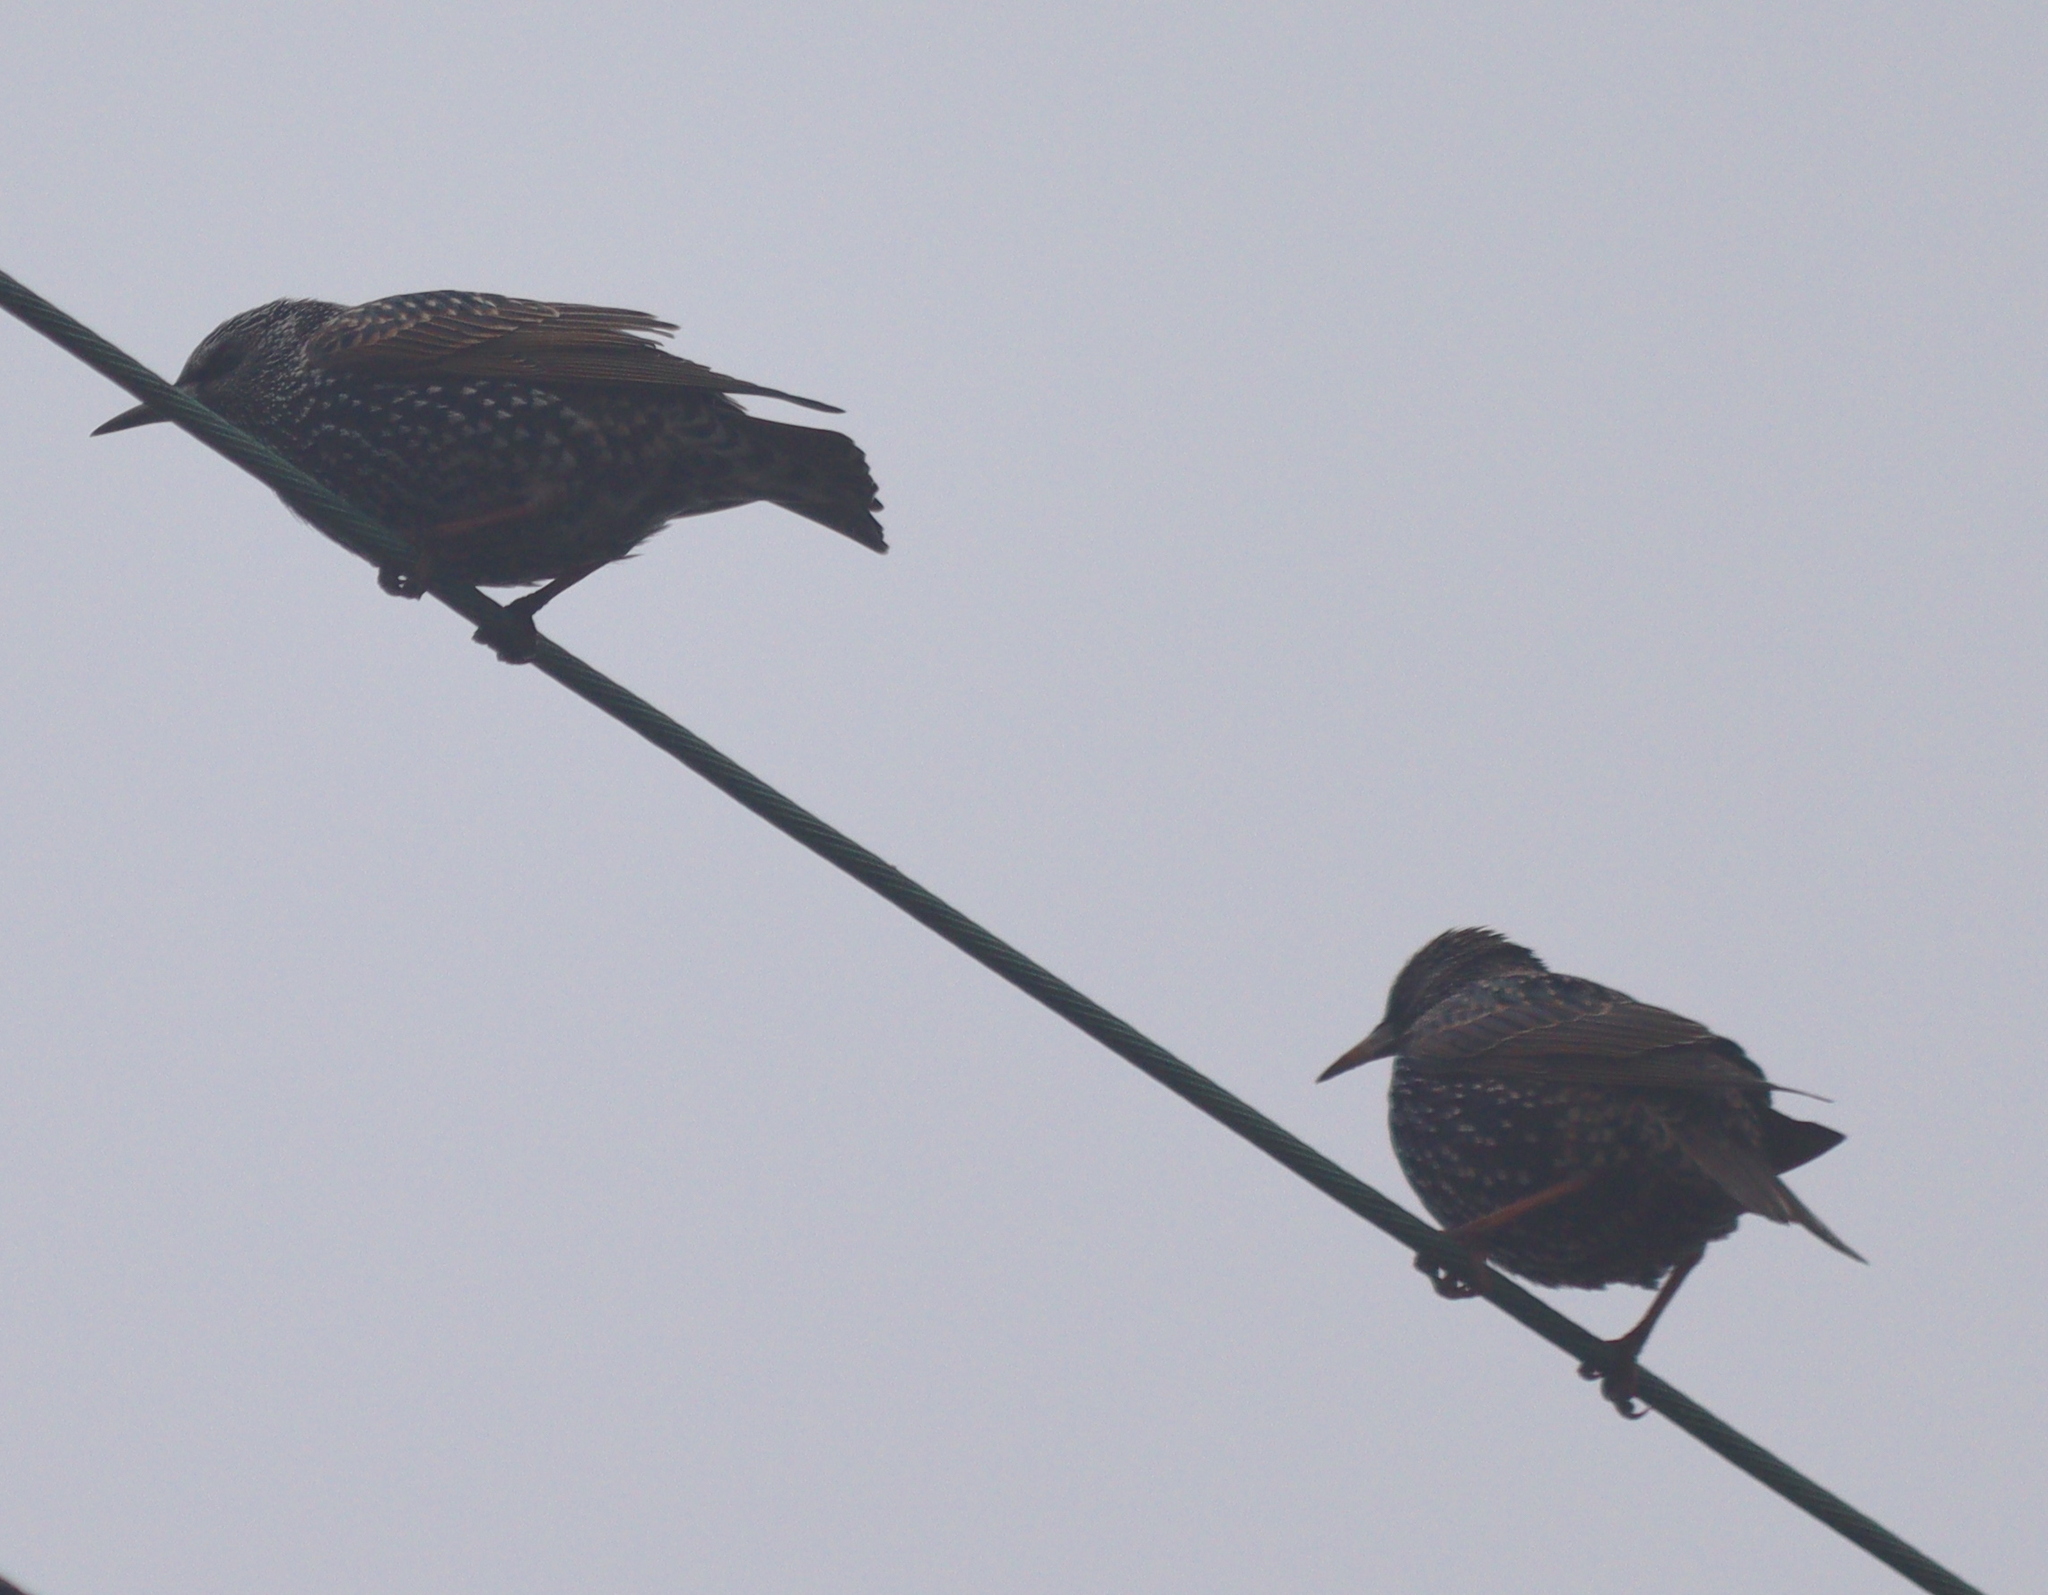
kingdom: Animalia
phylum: Chordata
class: Aves
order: Passeriformes
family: Sturnidae
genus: Sturnus
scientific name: Sturnus vulgaris
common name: Common starling
